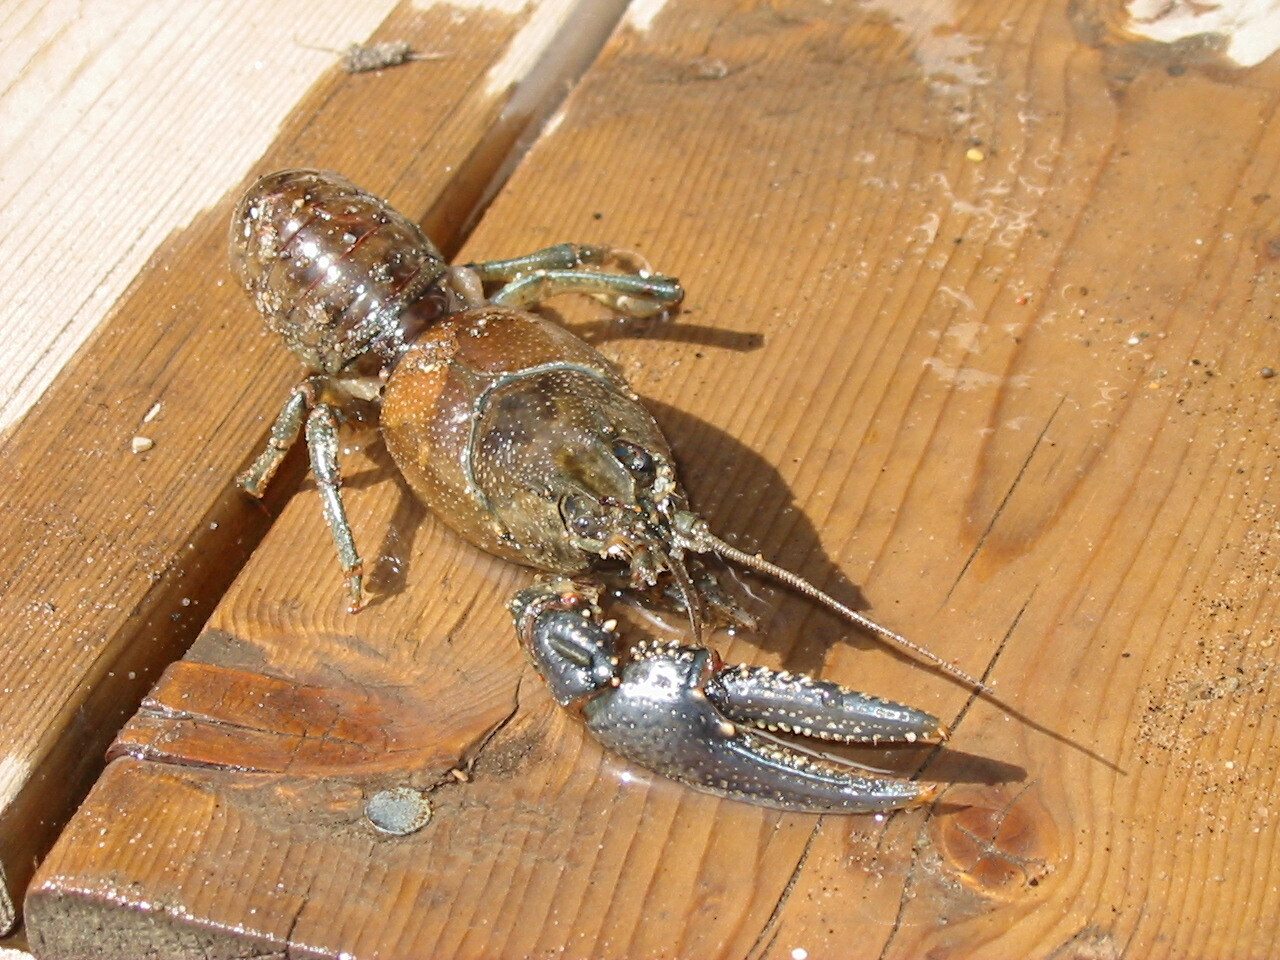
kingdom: Animalia
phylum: Arthropoda
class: Malacostraca
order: Decapoda
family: Cambaridae
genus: Faxonius
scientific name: Faxonius virilis
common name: Virile crayfish
